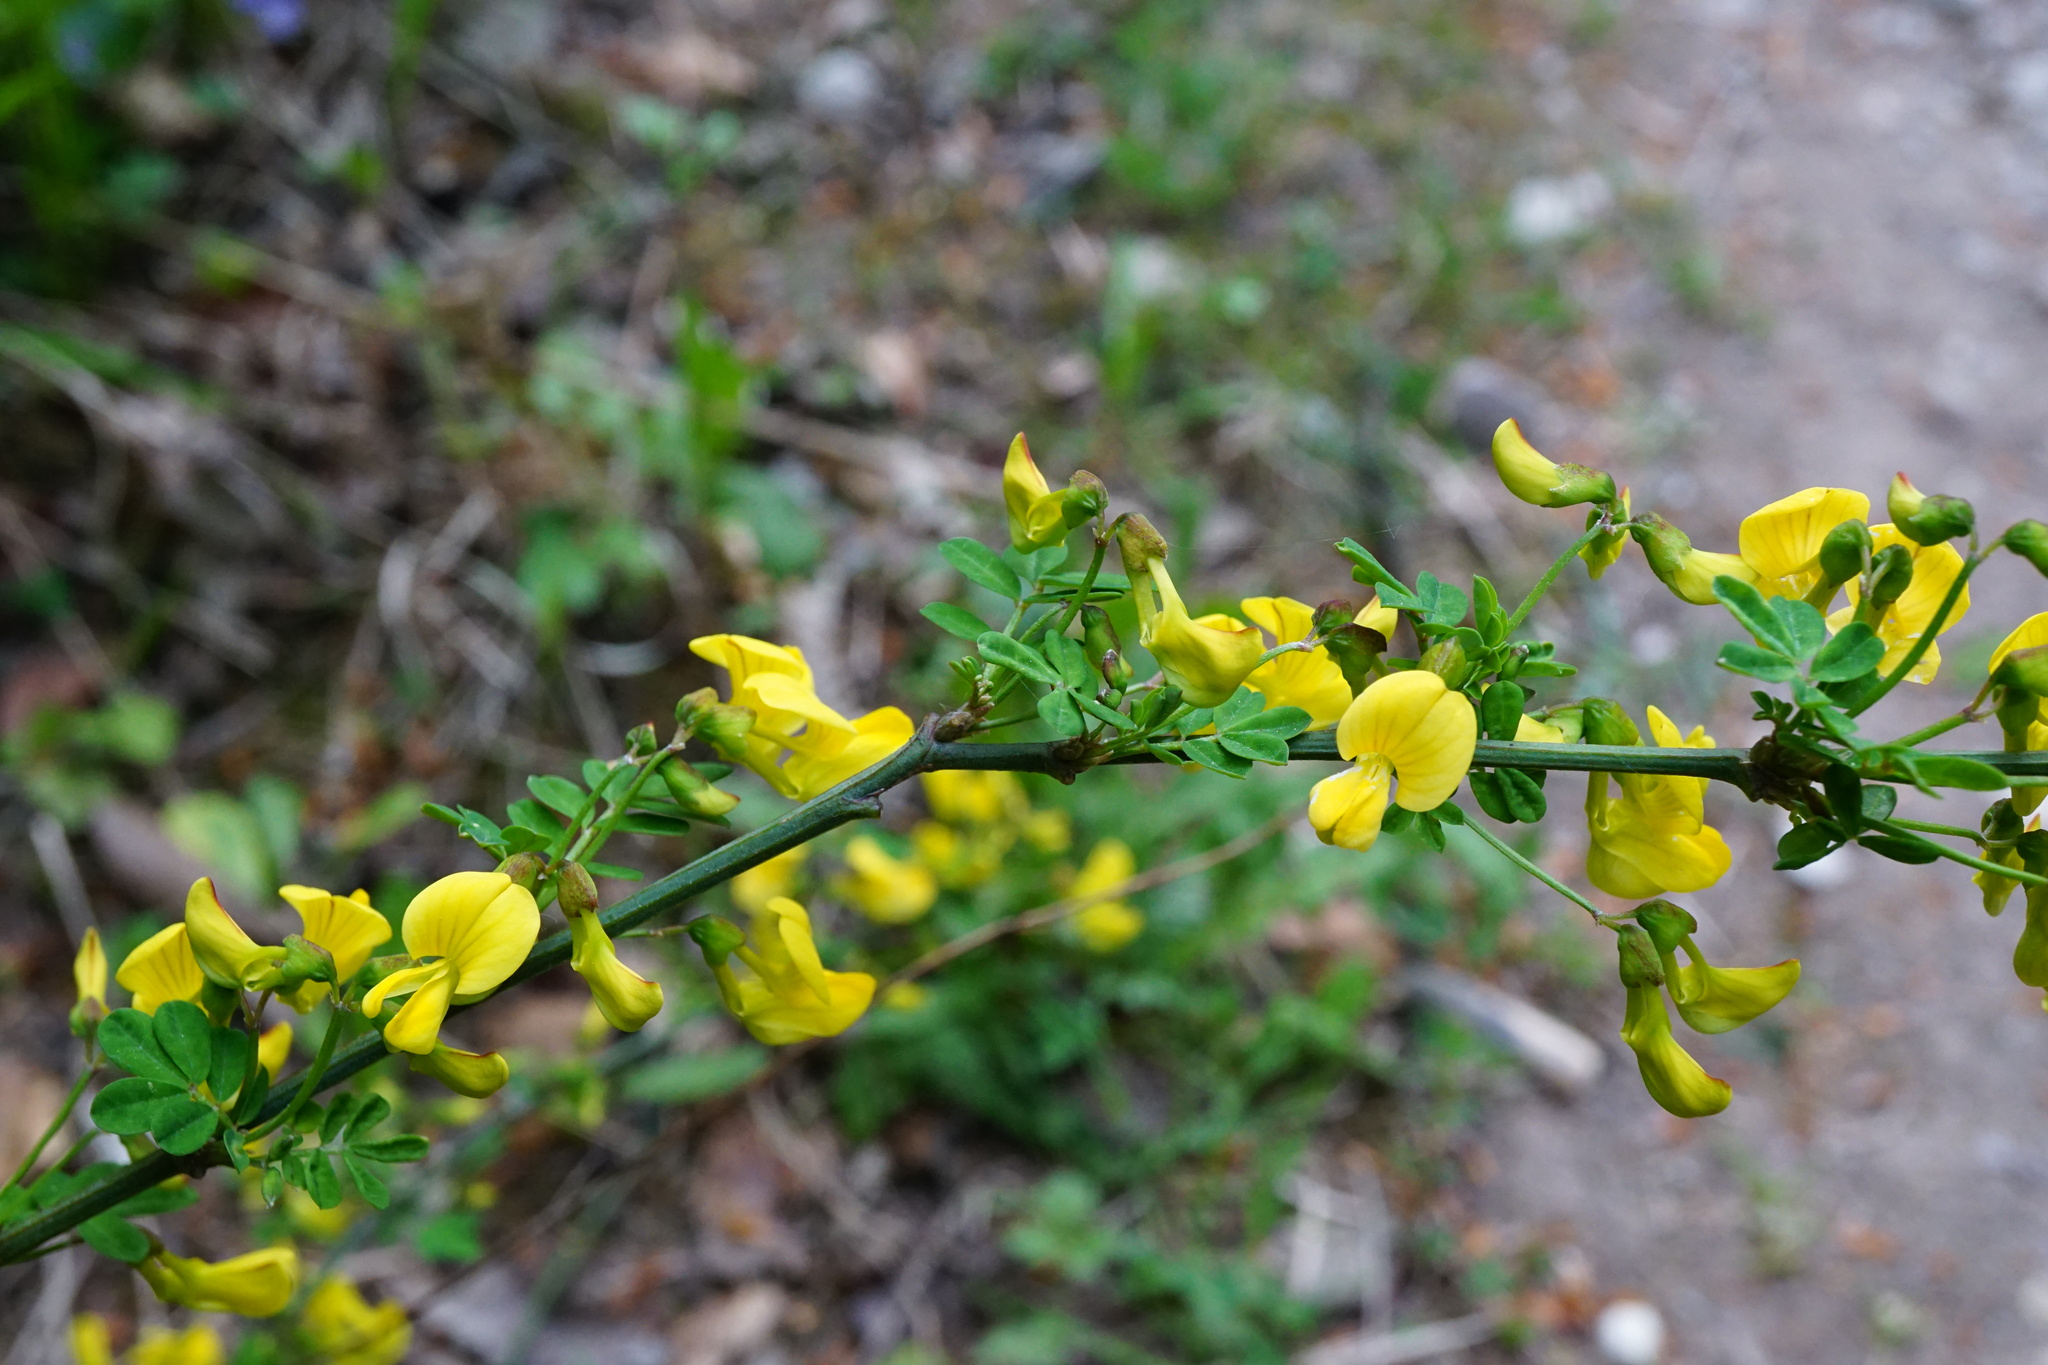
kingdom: Plantae
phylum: Tracheophyta
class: Magnoliopsida
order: Fabales
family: Fabaceae
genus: Hippocrepis
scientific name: Hippocrepis emerus
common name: Scorpion senna
